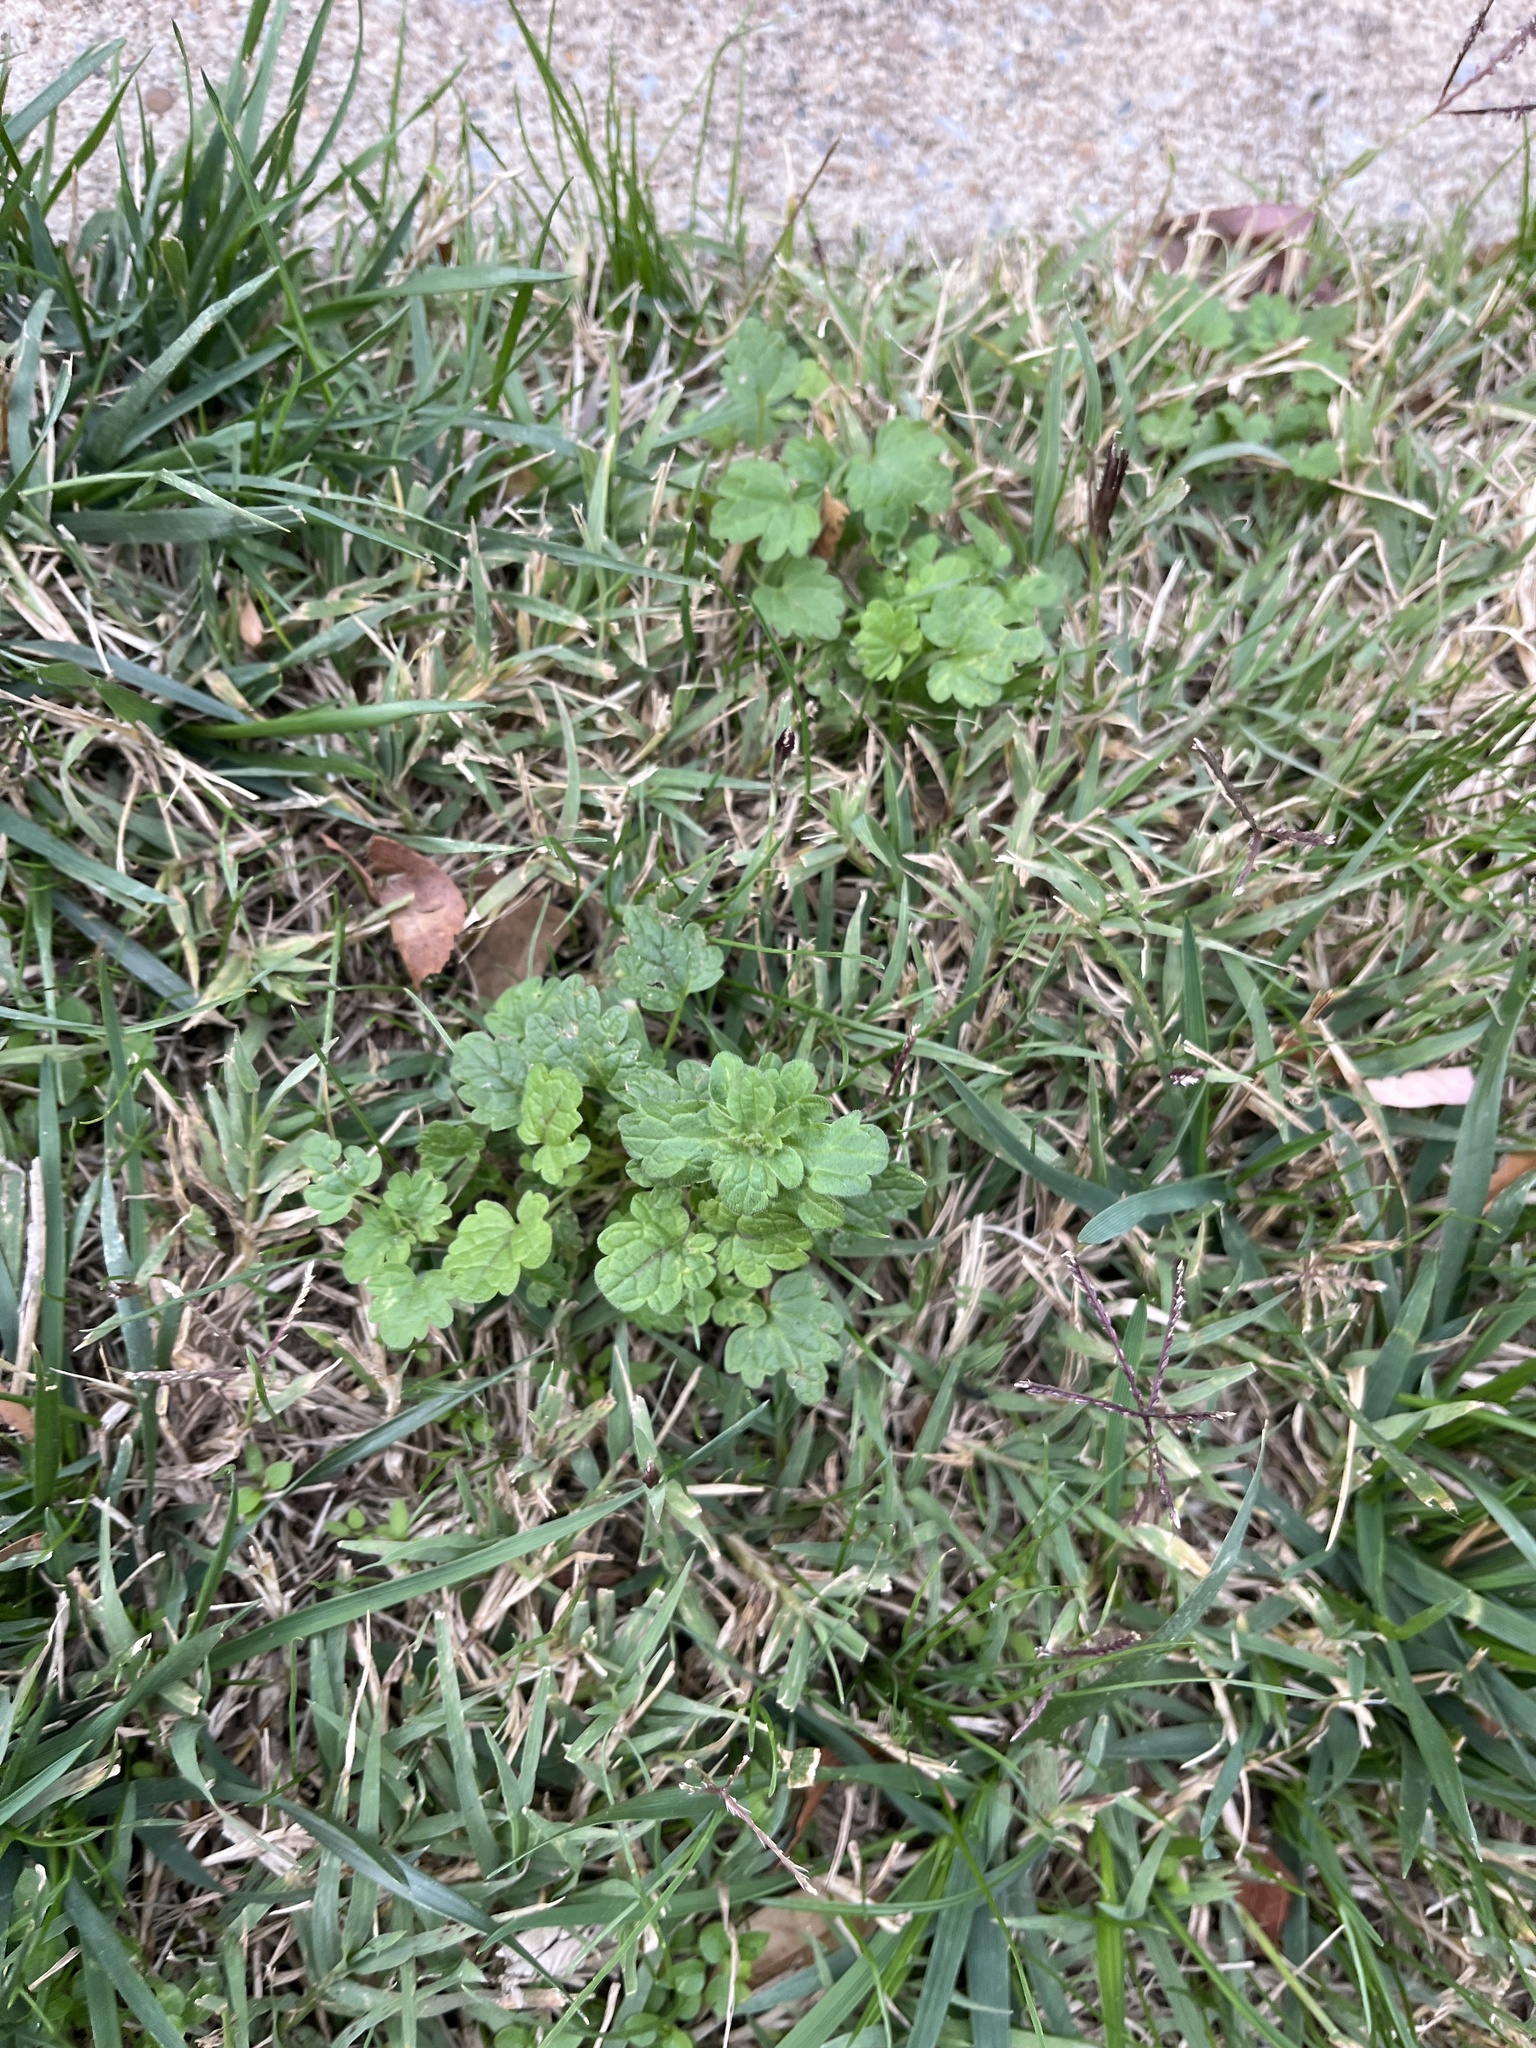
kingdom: Plantae
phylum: Tracheophyta
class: Magnoliopsida
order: Lamiales
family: Lamiaceae
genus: Lamium
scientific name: Lamium amplexicaule
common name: Henbit dead-nettle
